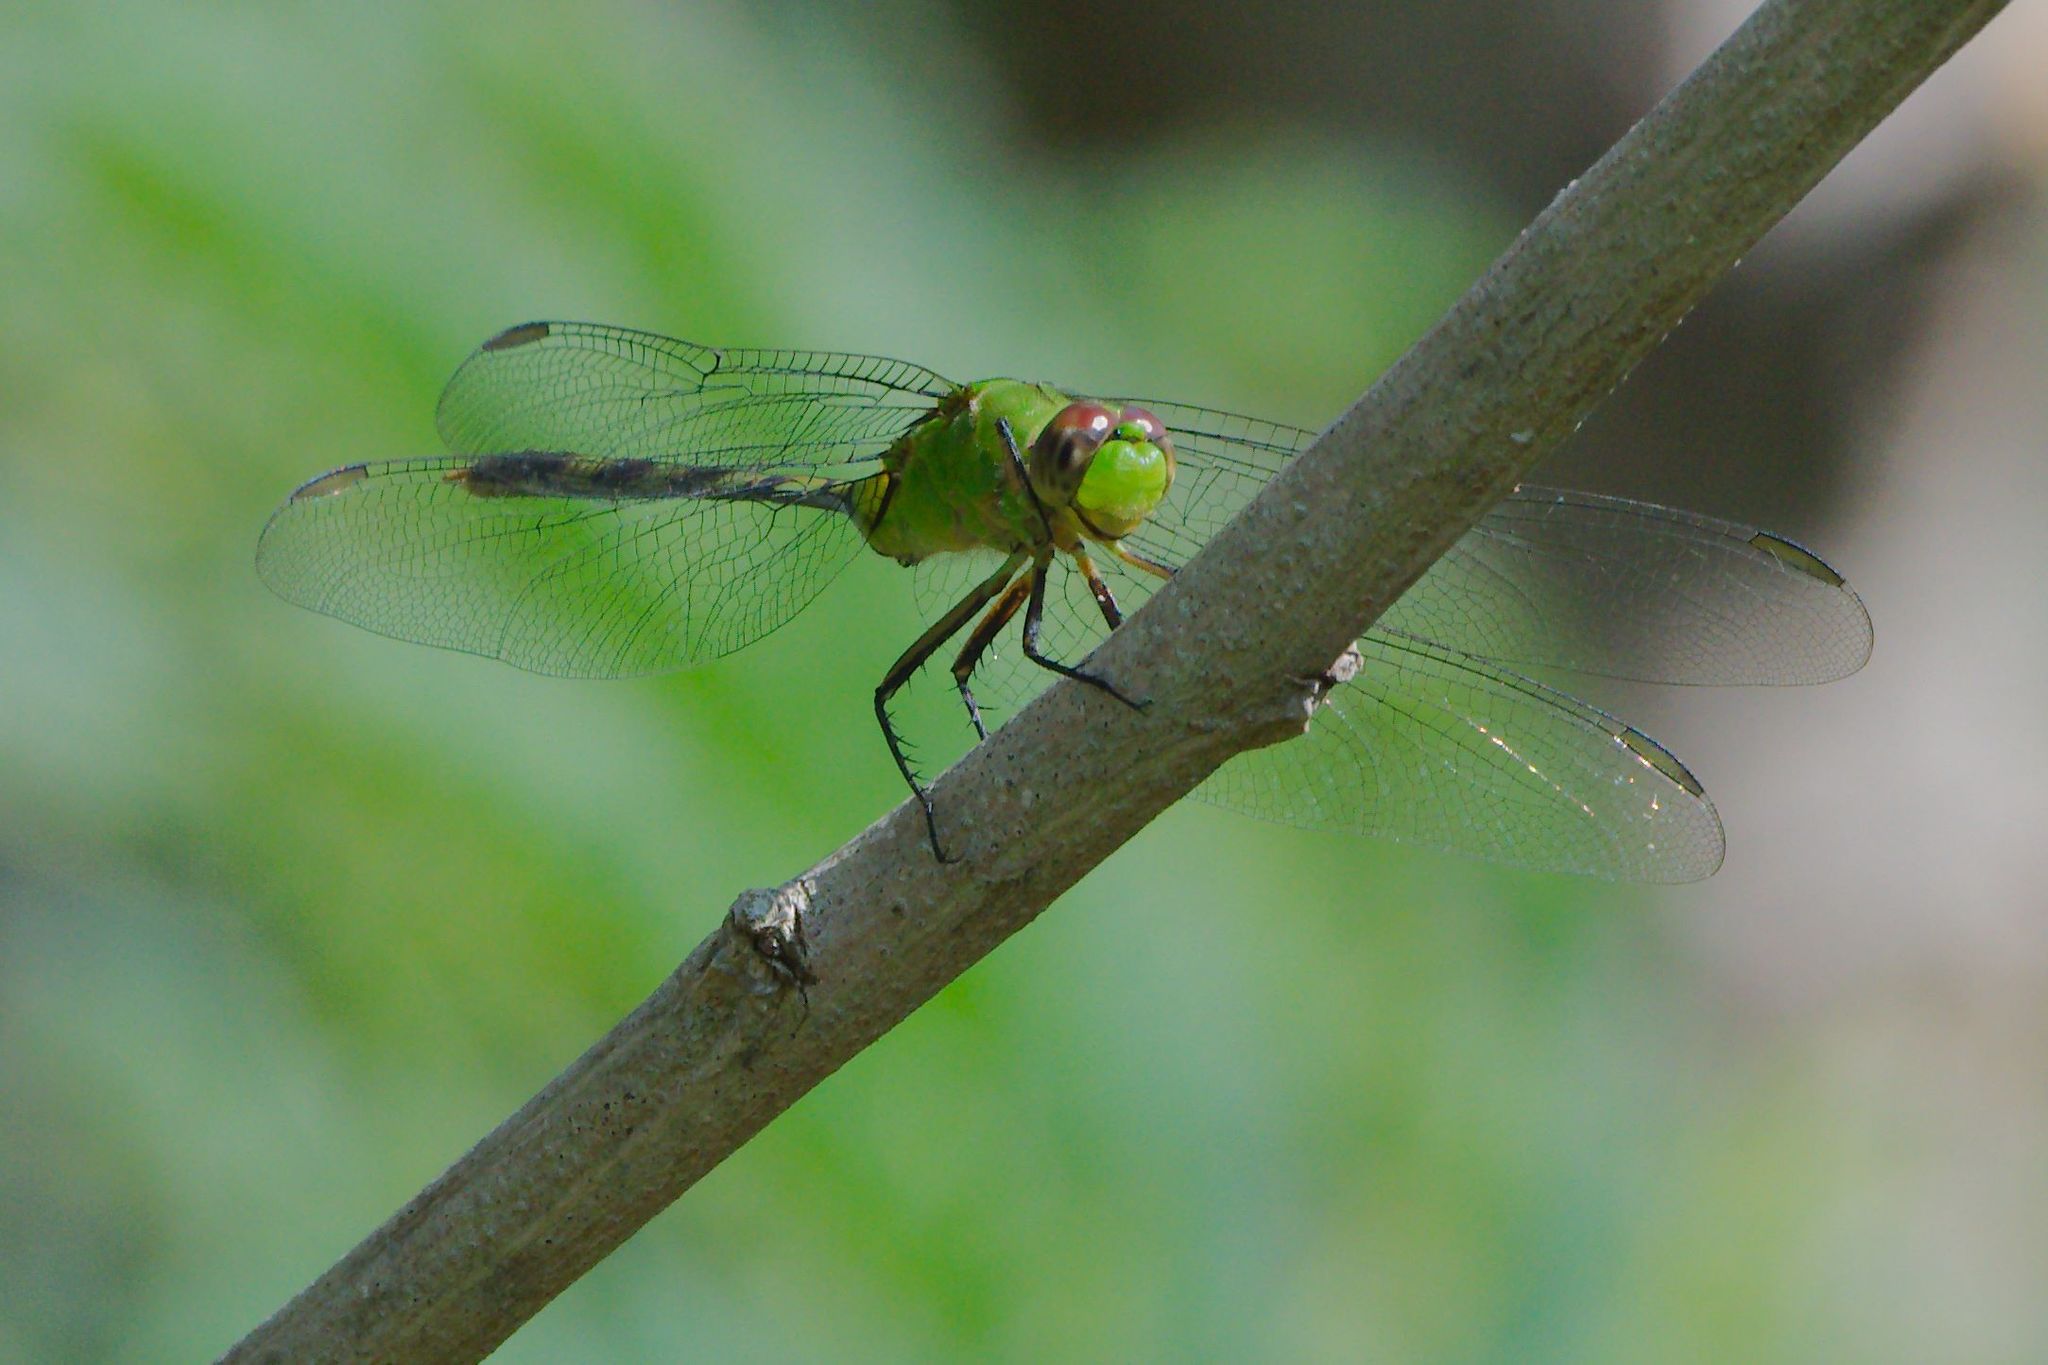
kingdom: Animalia
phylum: Arthropoda
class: Insecta
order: Odonata
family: Libellulidae
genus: Erythemis
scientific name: Erythemis vesiculosa
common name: Great pondhawk
